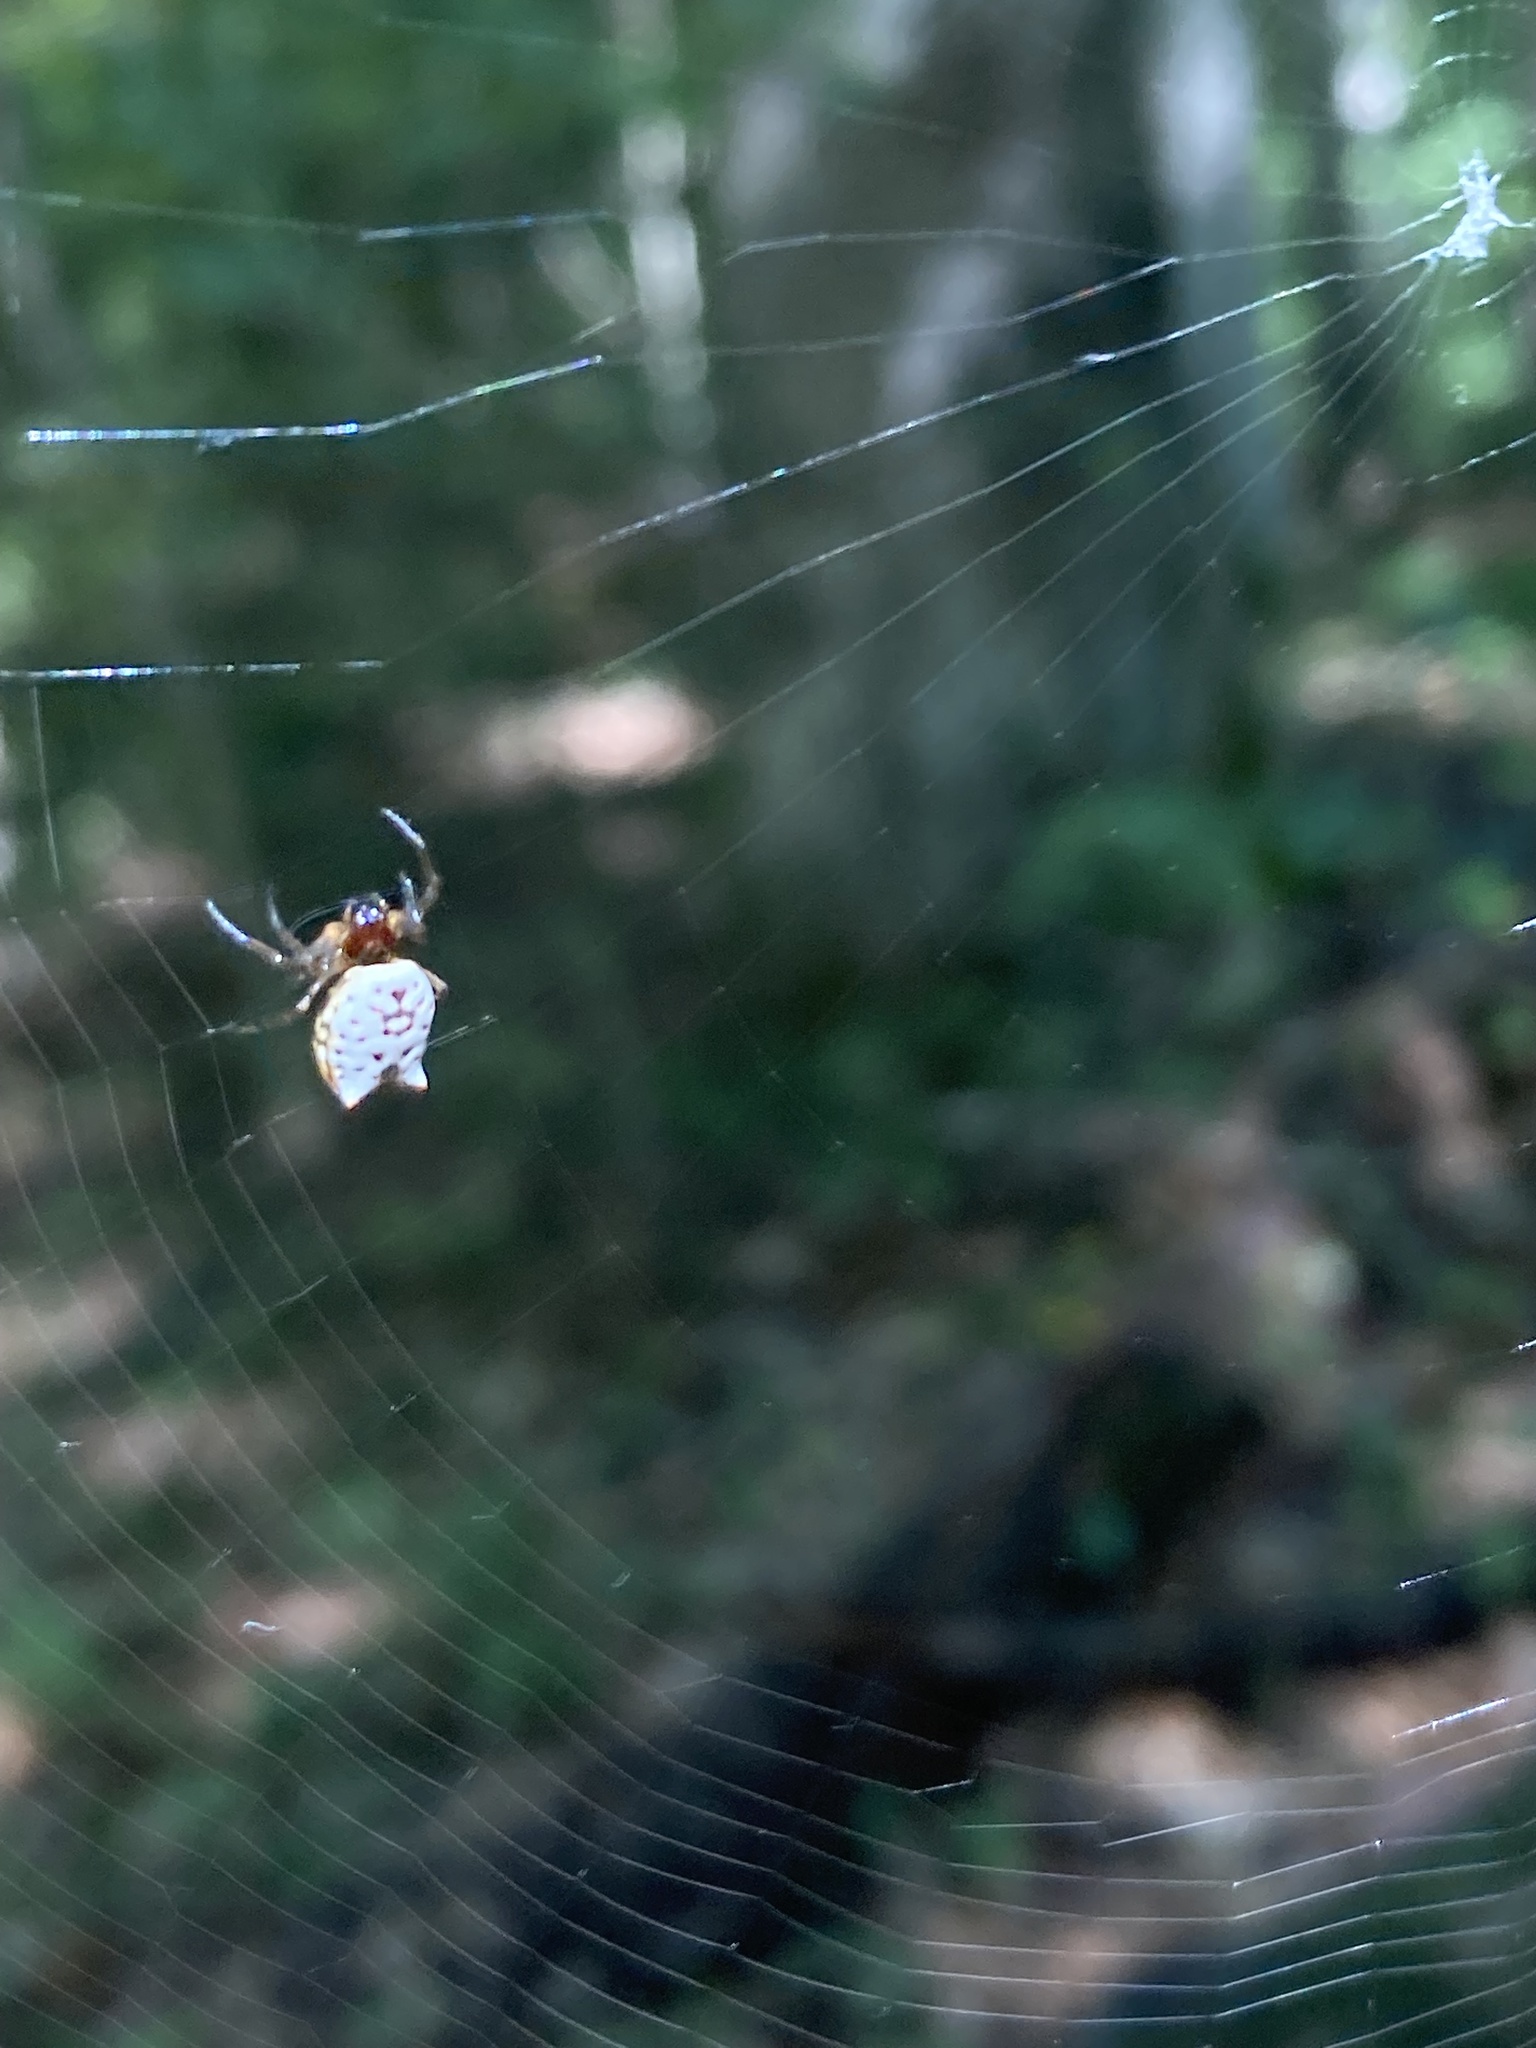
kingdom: Animalia
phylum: Arthropoda
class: Arachnida
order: Araneae
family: Araneidae
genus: Micrathena
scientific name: Micrathena mitrata
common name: Orb weavers
